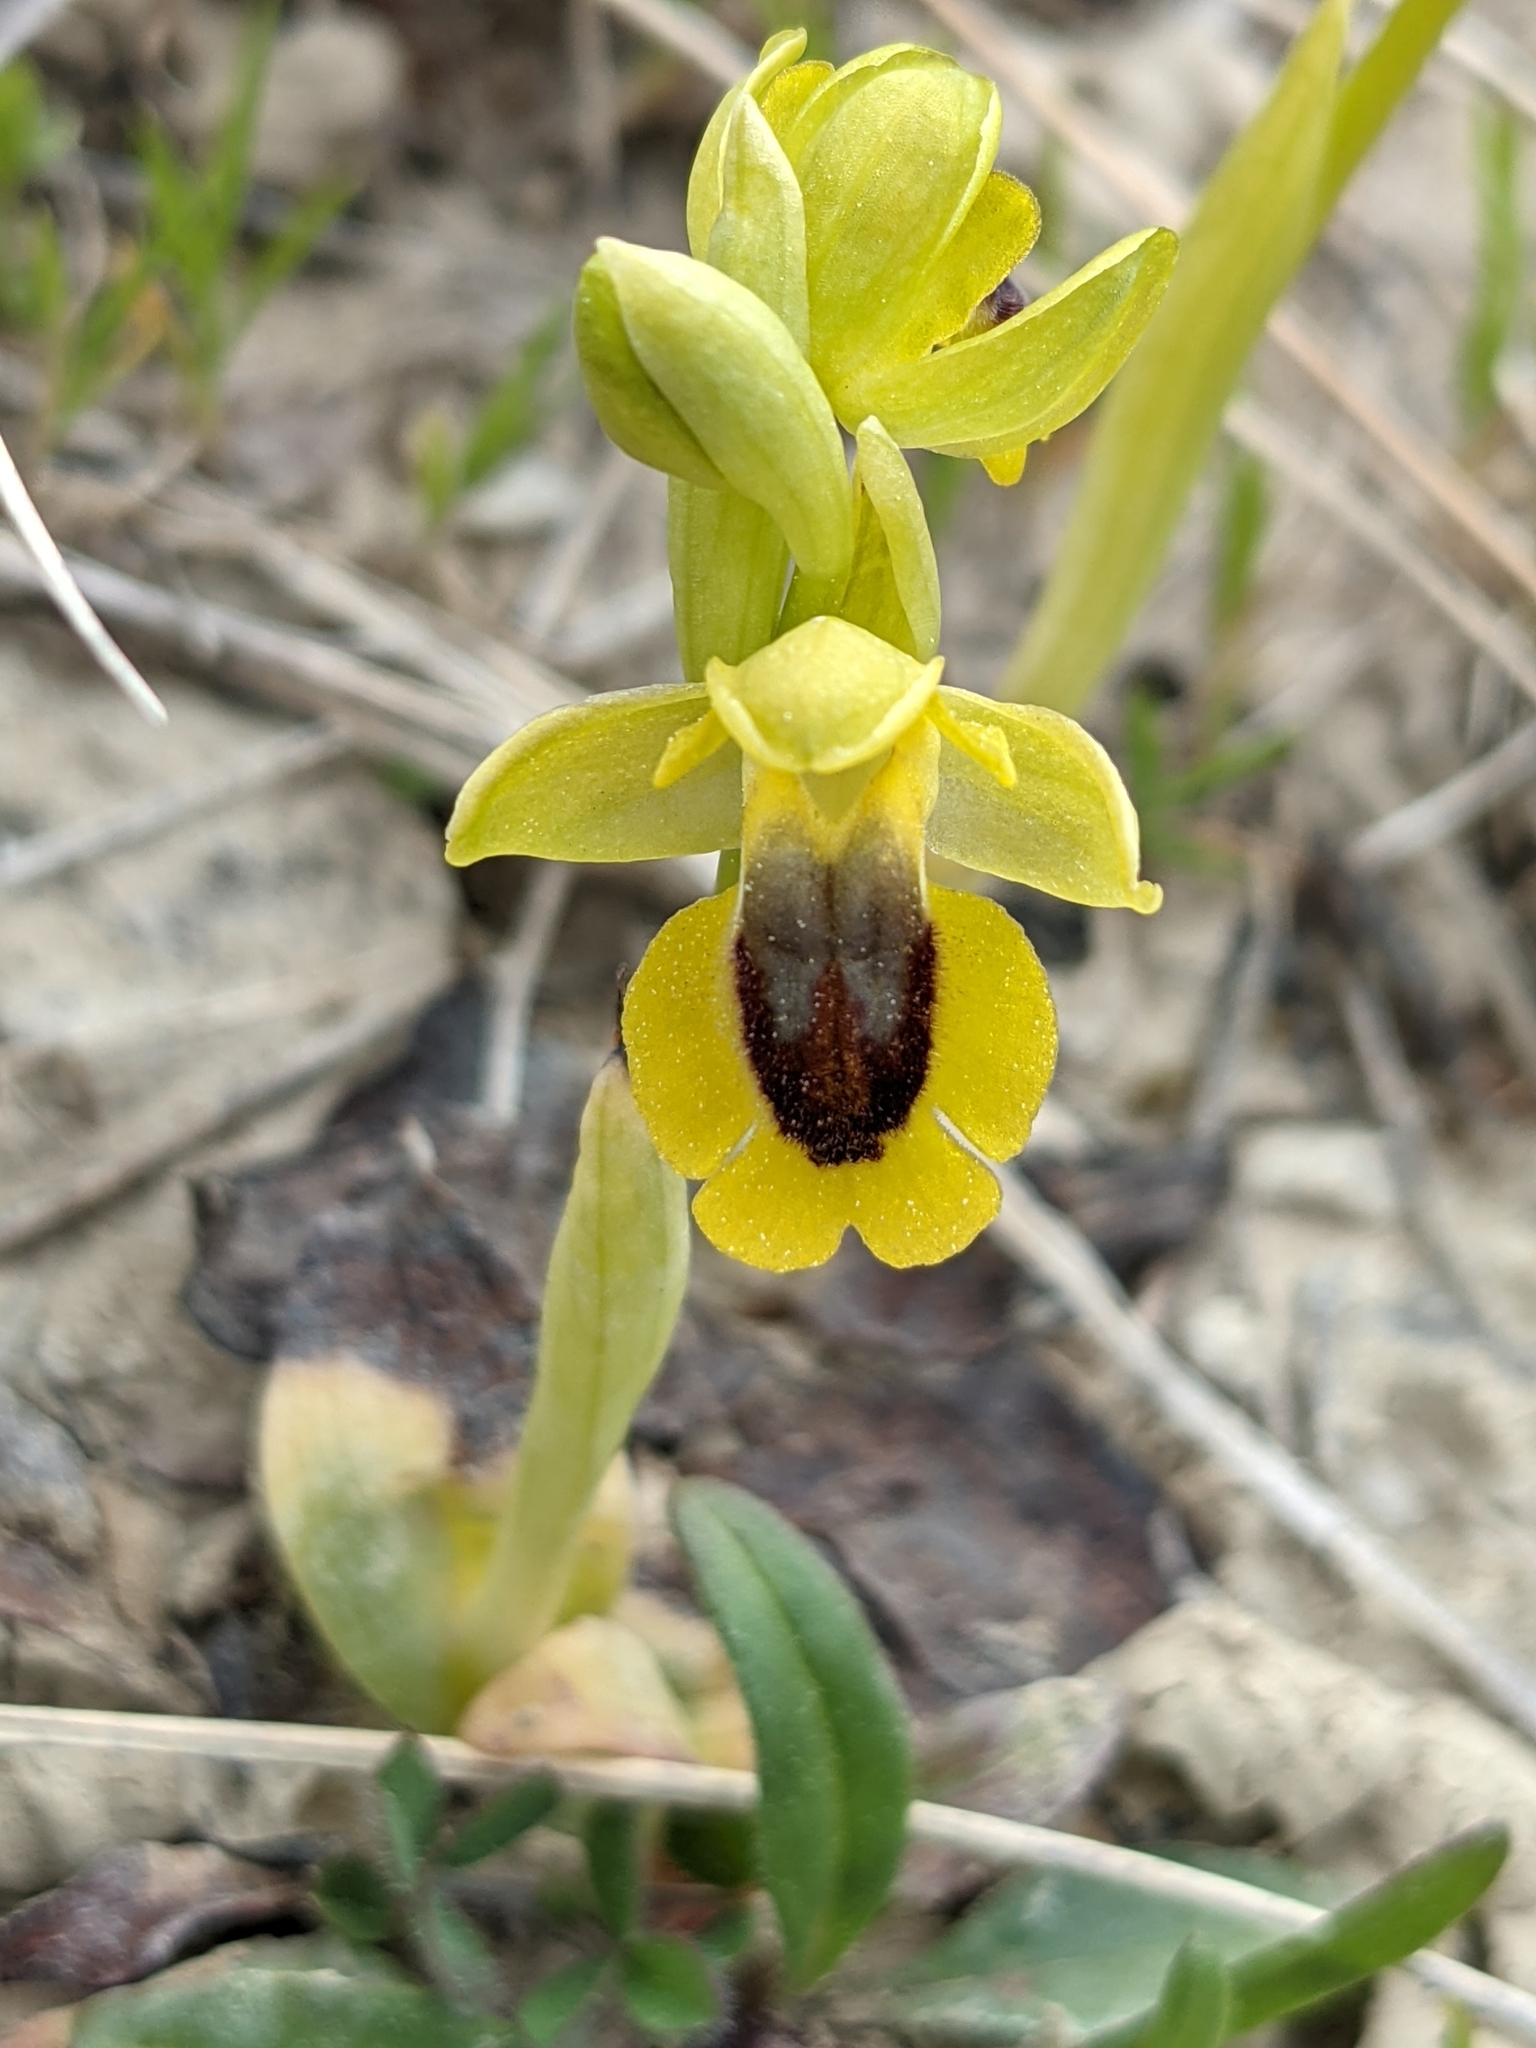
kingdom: Plantae
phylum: Tracheophyta
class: Liliopsida
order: Asparagales
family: Orchidaceae
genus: Ophrys
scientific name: Ophrys lutea
